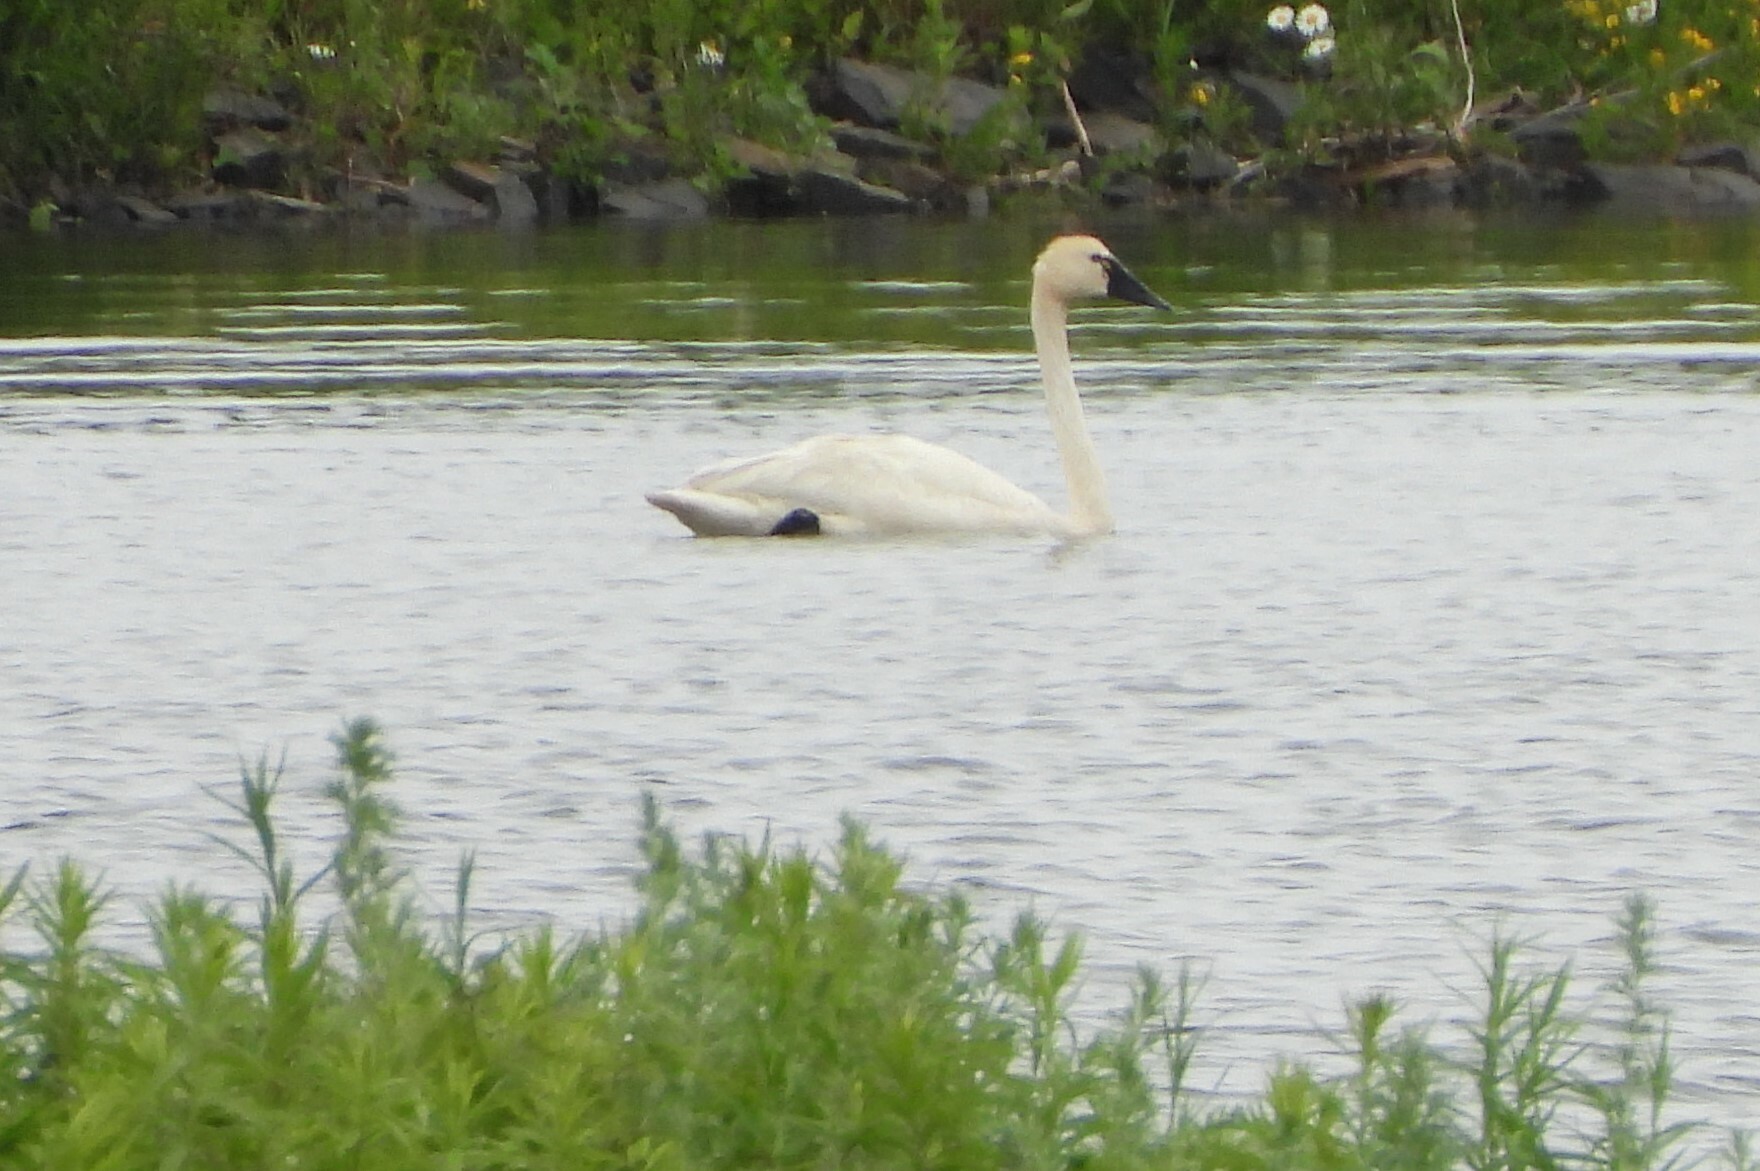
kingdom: Animalia
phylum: Chordata
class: Aves
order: Anseriformes
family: Anatidae
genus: Cygnus
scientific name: Cygnus columbianus
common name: Tundra swan
